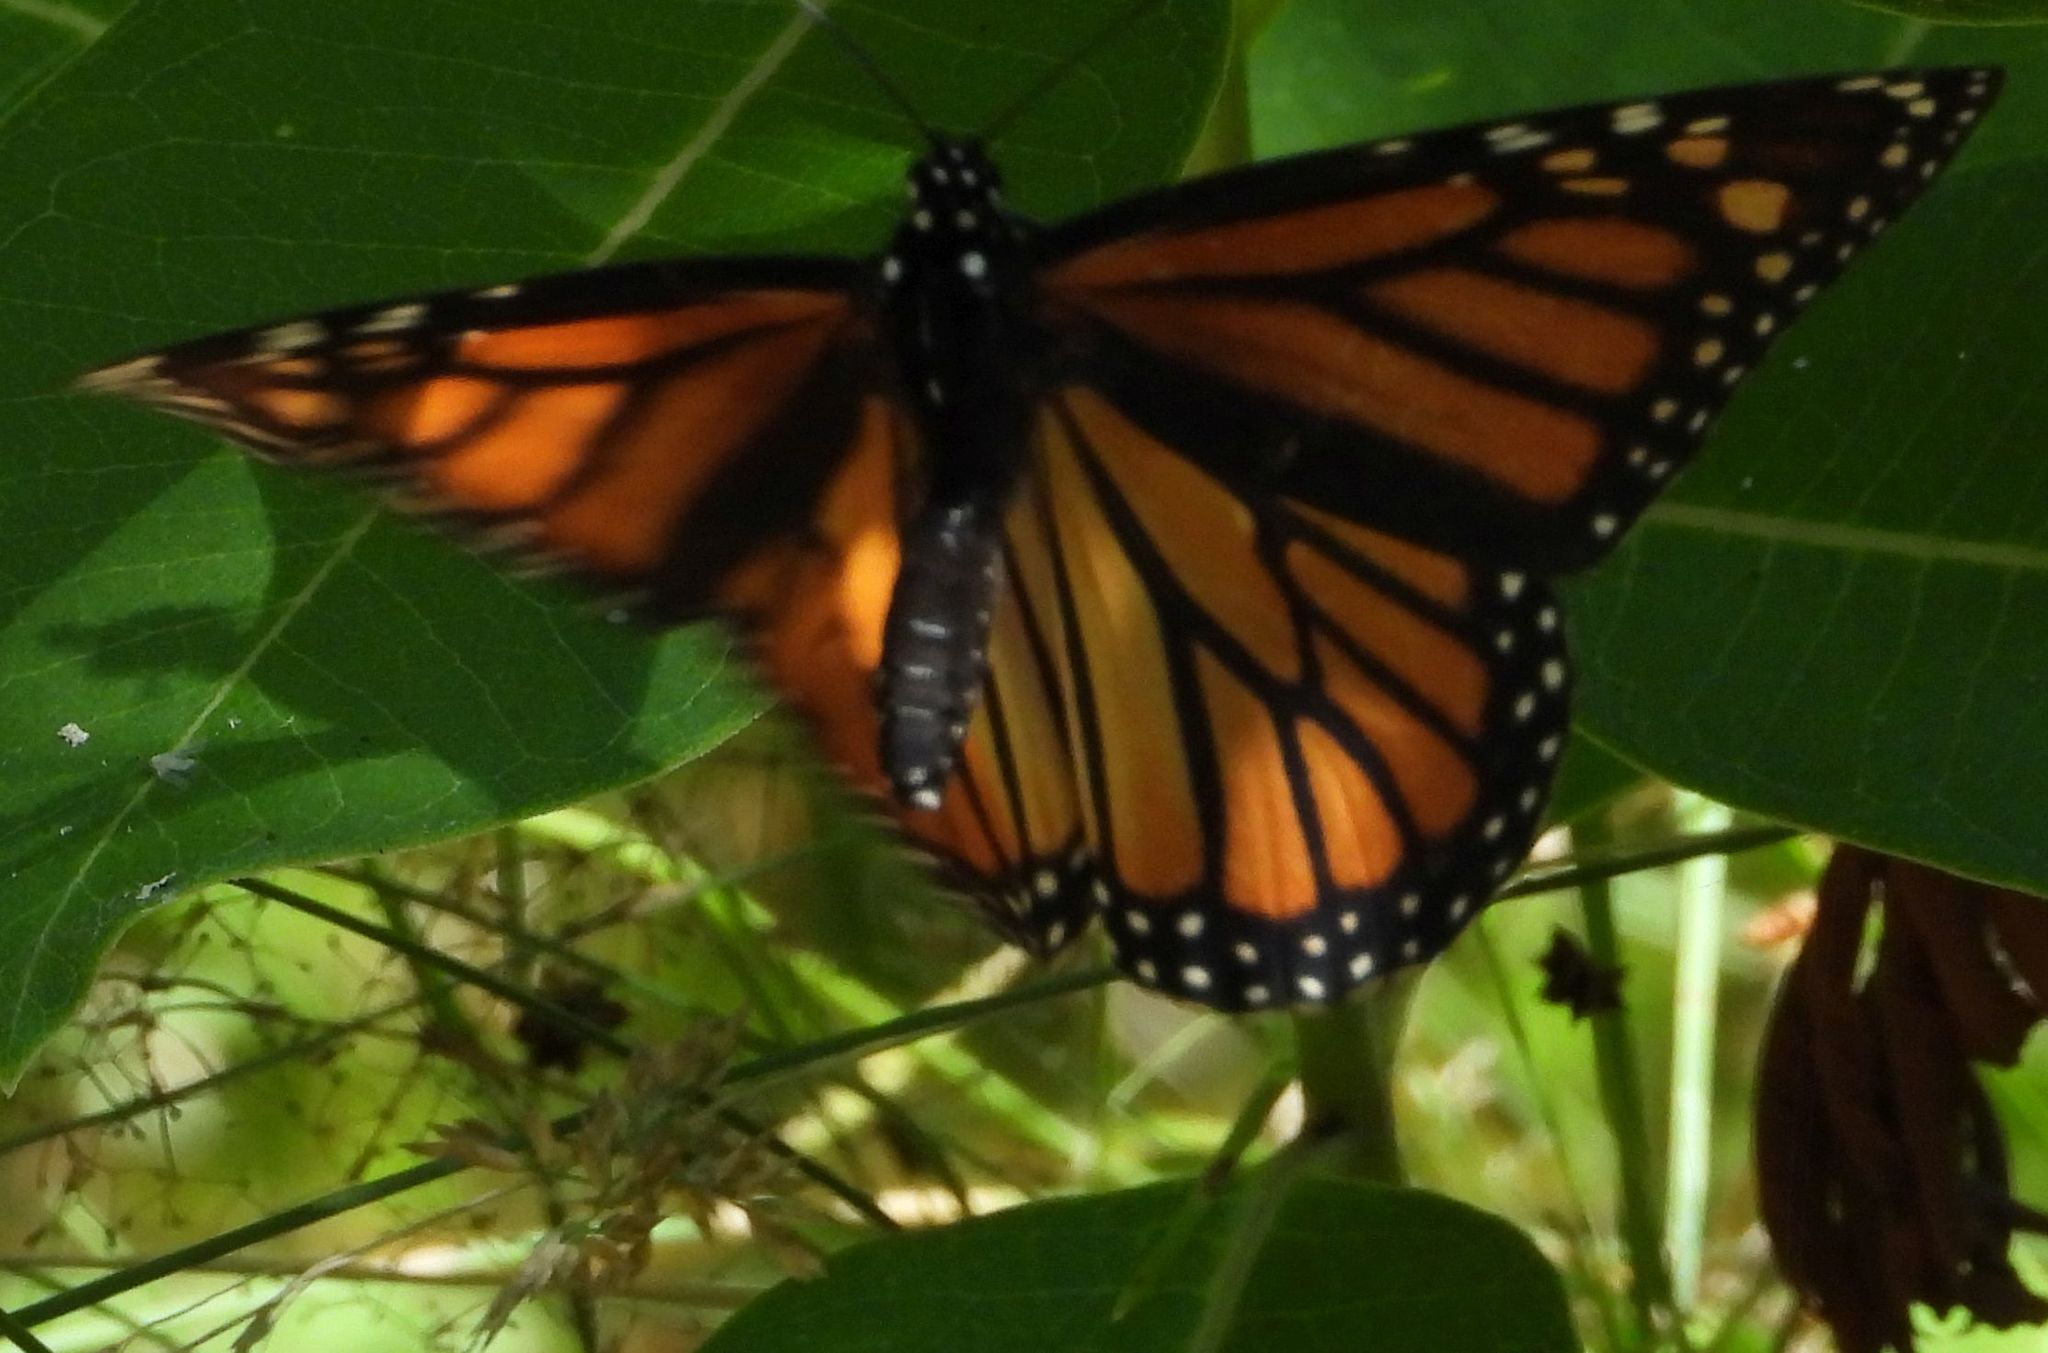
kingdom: Animalia
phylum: Arthropoda
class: Insecta
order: Lepidoptera
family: Nymphalidae
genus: Danaus
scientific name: Danaus plexippus
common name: Monarch
